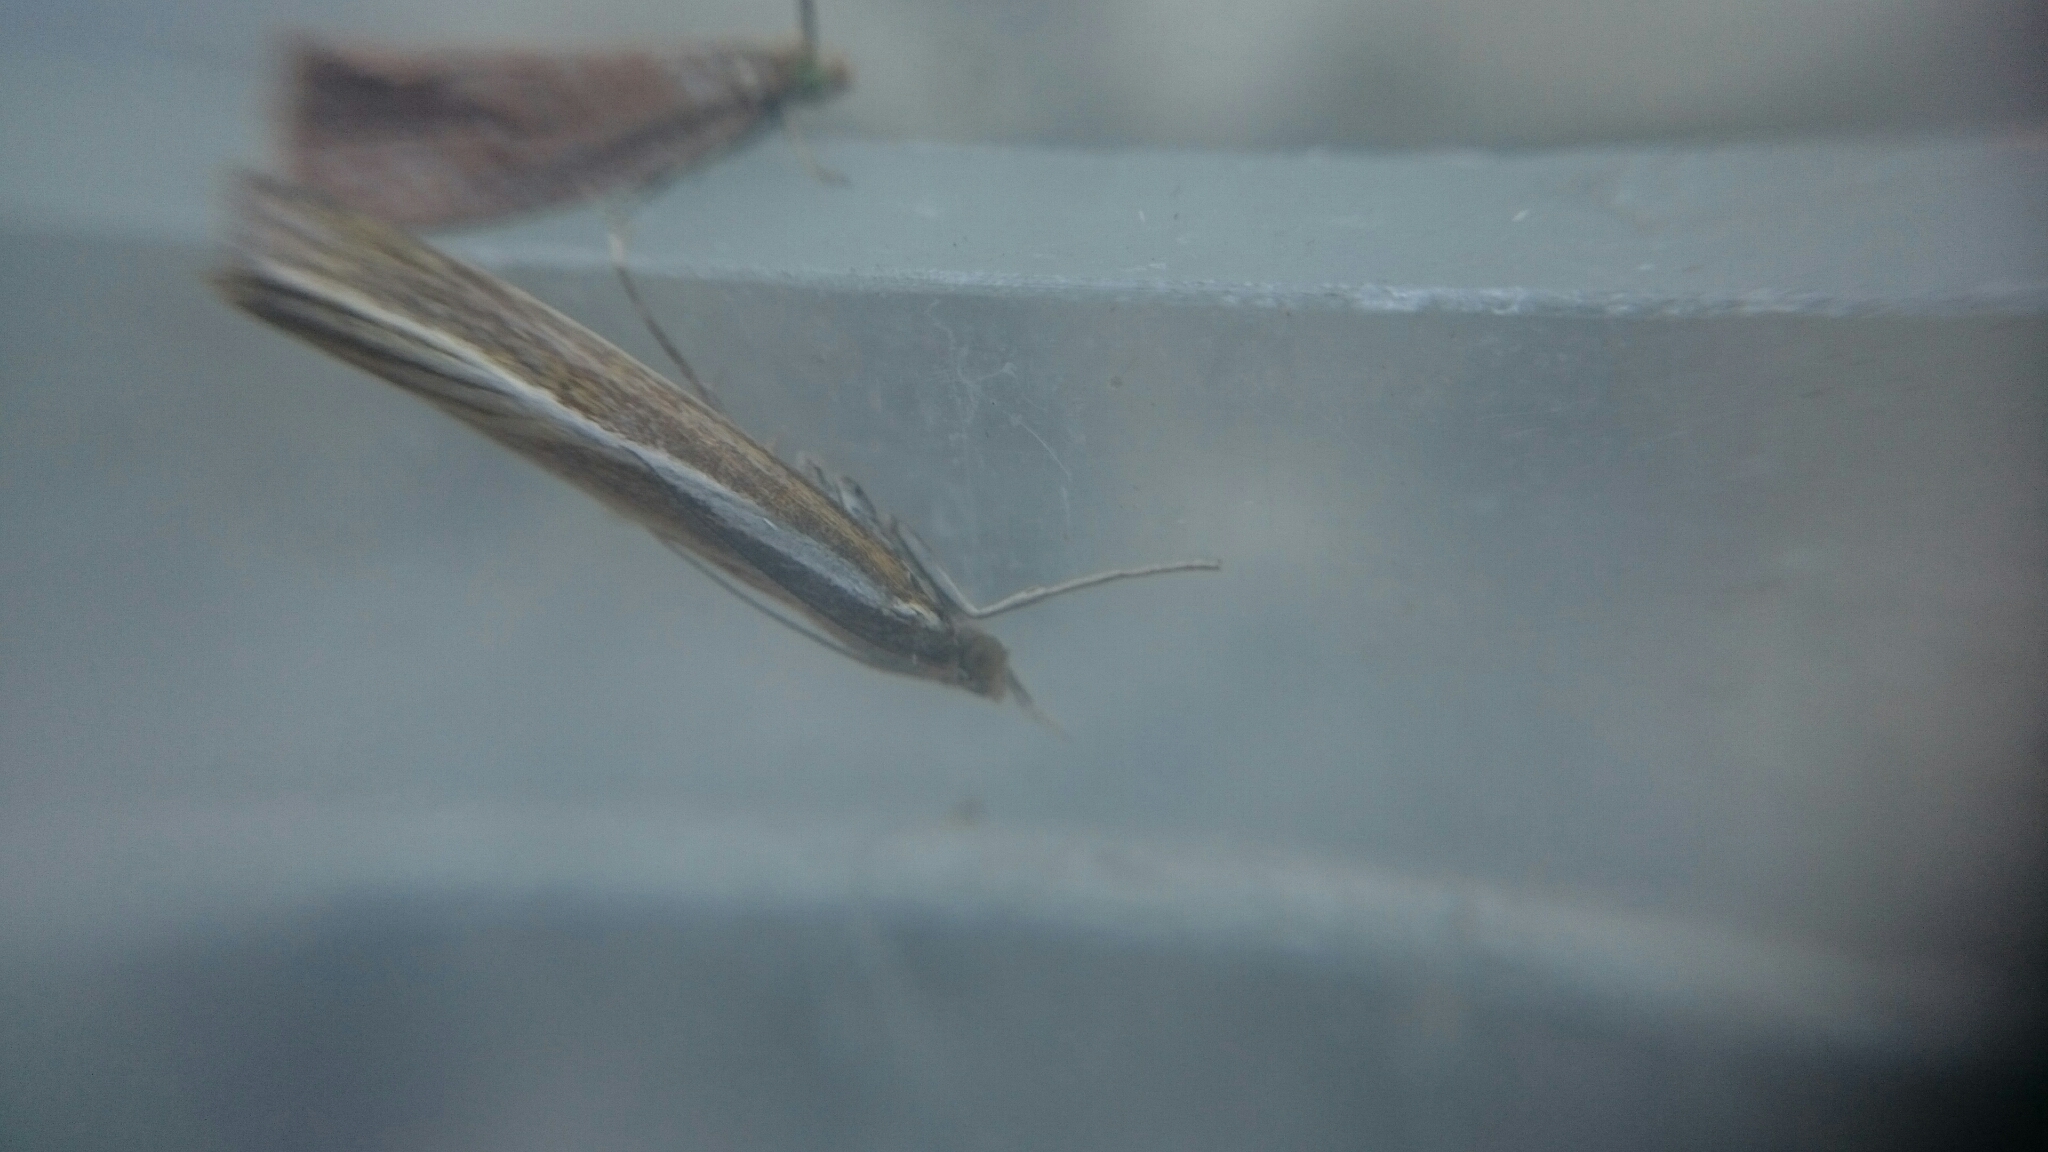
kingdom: Animalia
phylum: Arthropoda
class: Insecta
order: Lepidoptera
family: Crambidae
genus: Agriphila
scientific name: Agriphila tristellus
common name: Common grass-veneer
